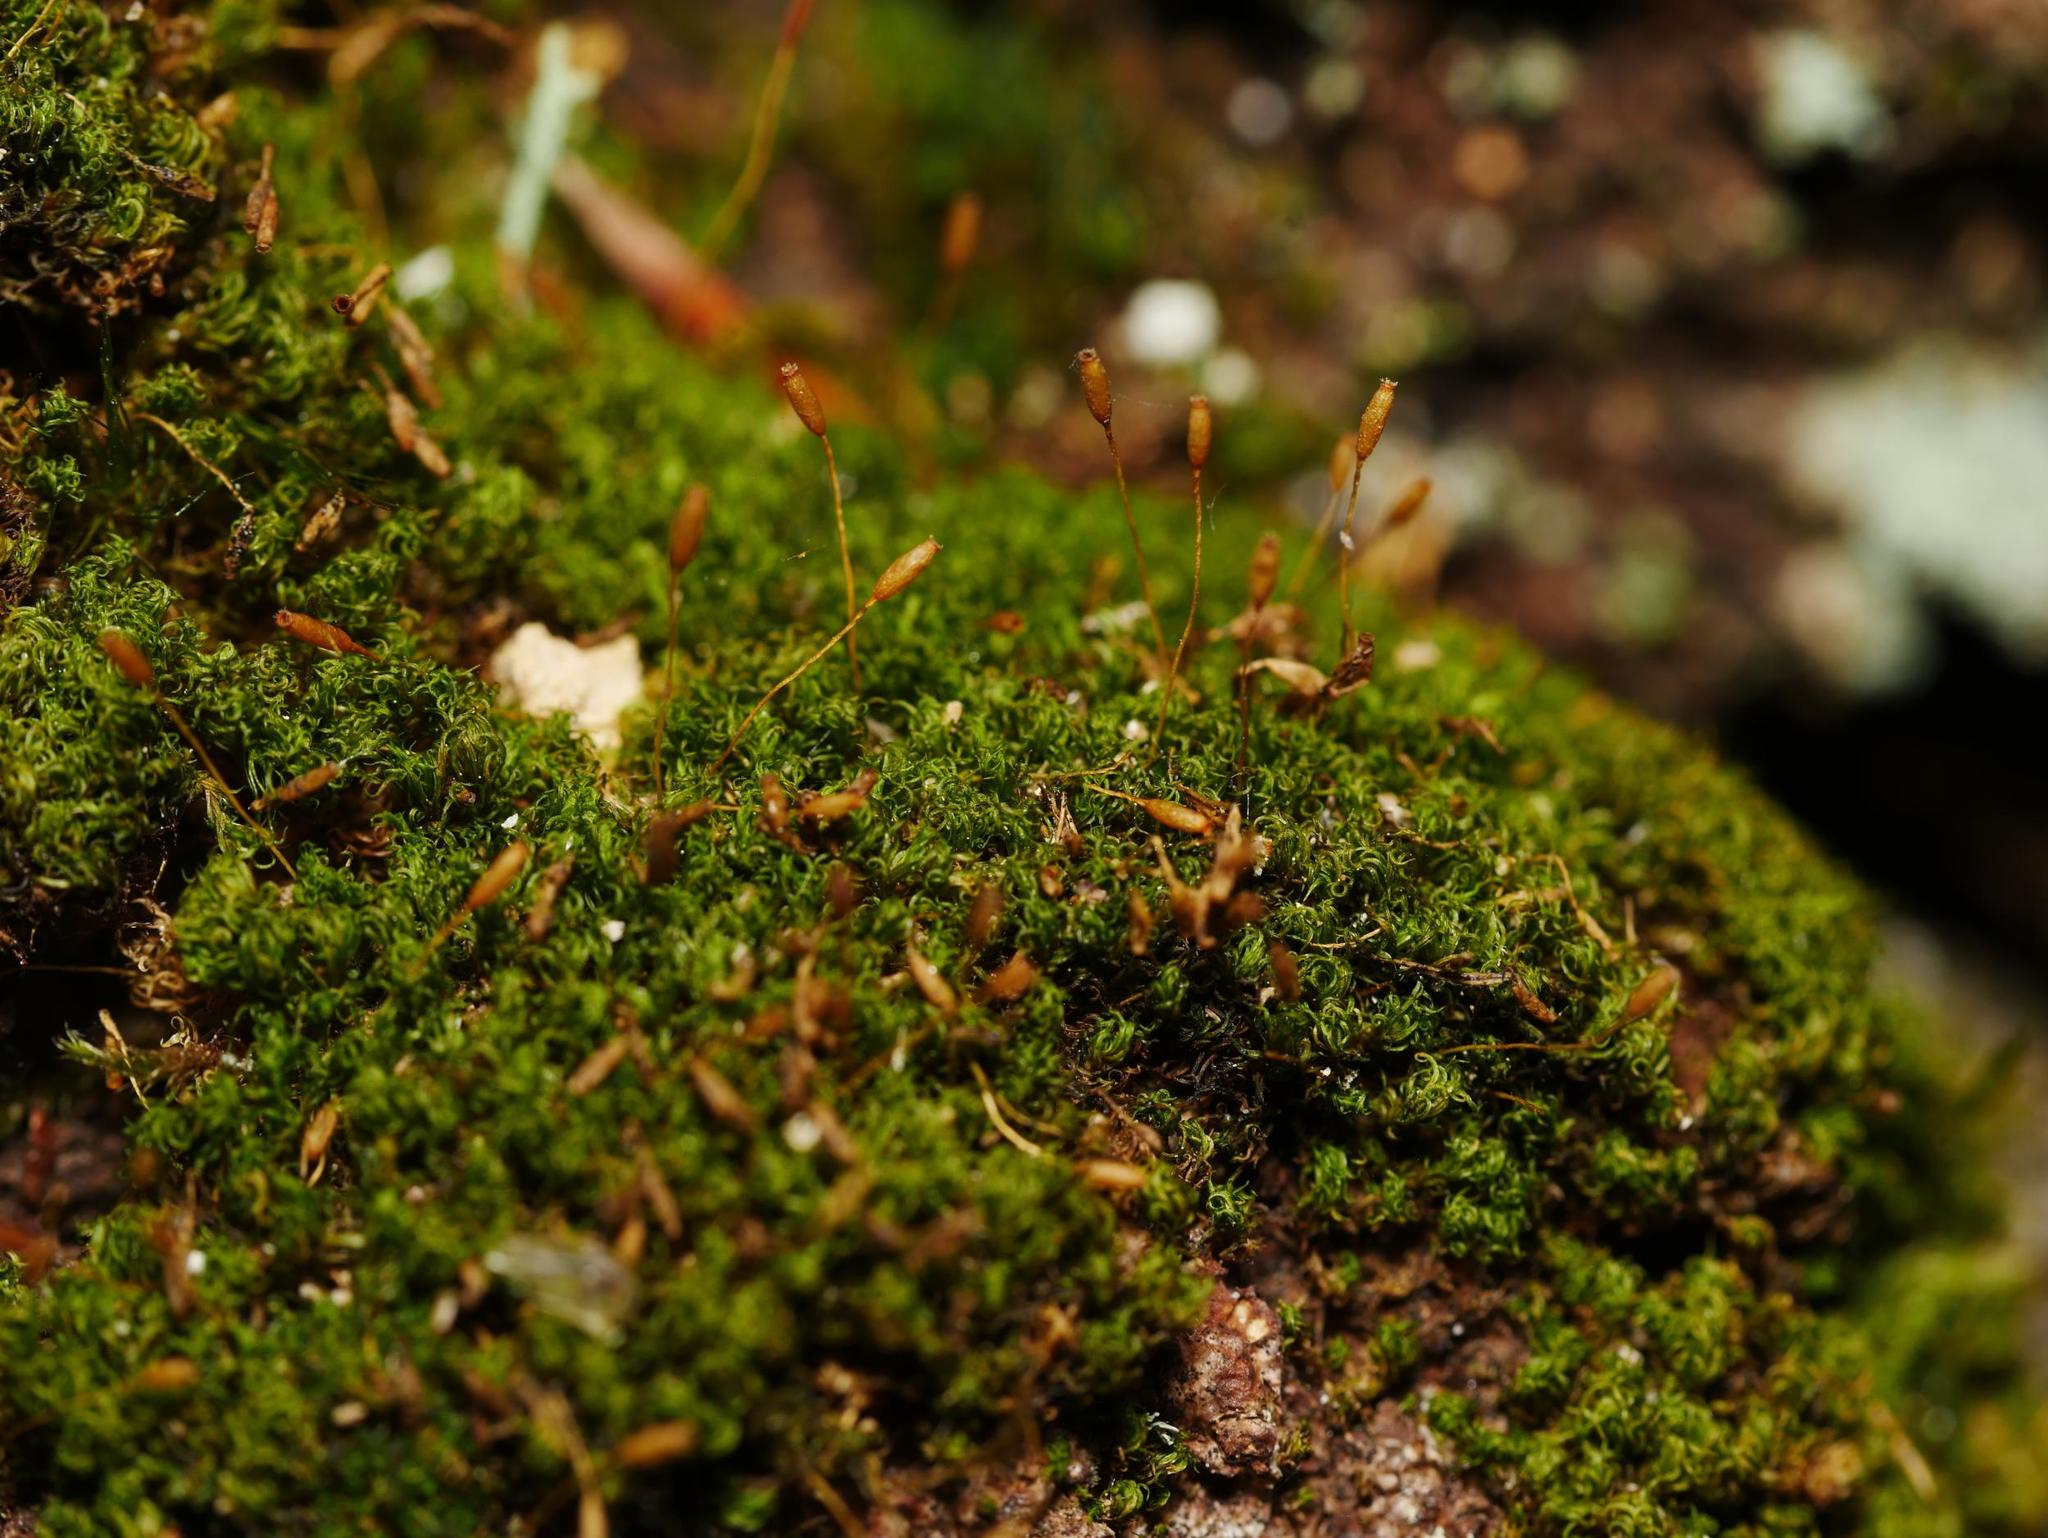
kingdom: Plantae
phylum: Bryophyta
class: Bryopsida
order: Dicranales
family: Rhabdoweisiaceae
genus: Dicranoweisia
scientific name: Dicranoweisia cirrata
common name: Common pincushion
